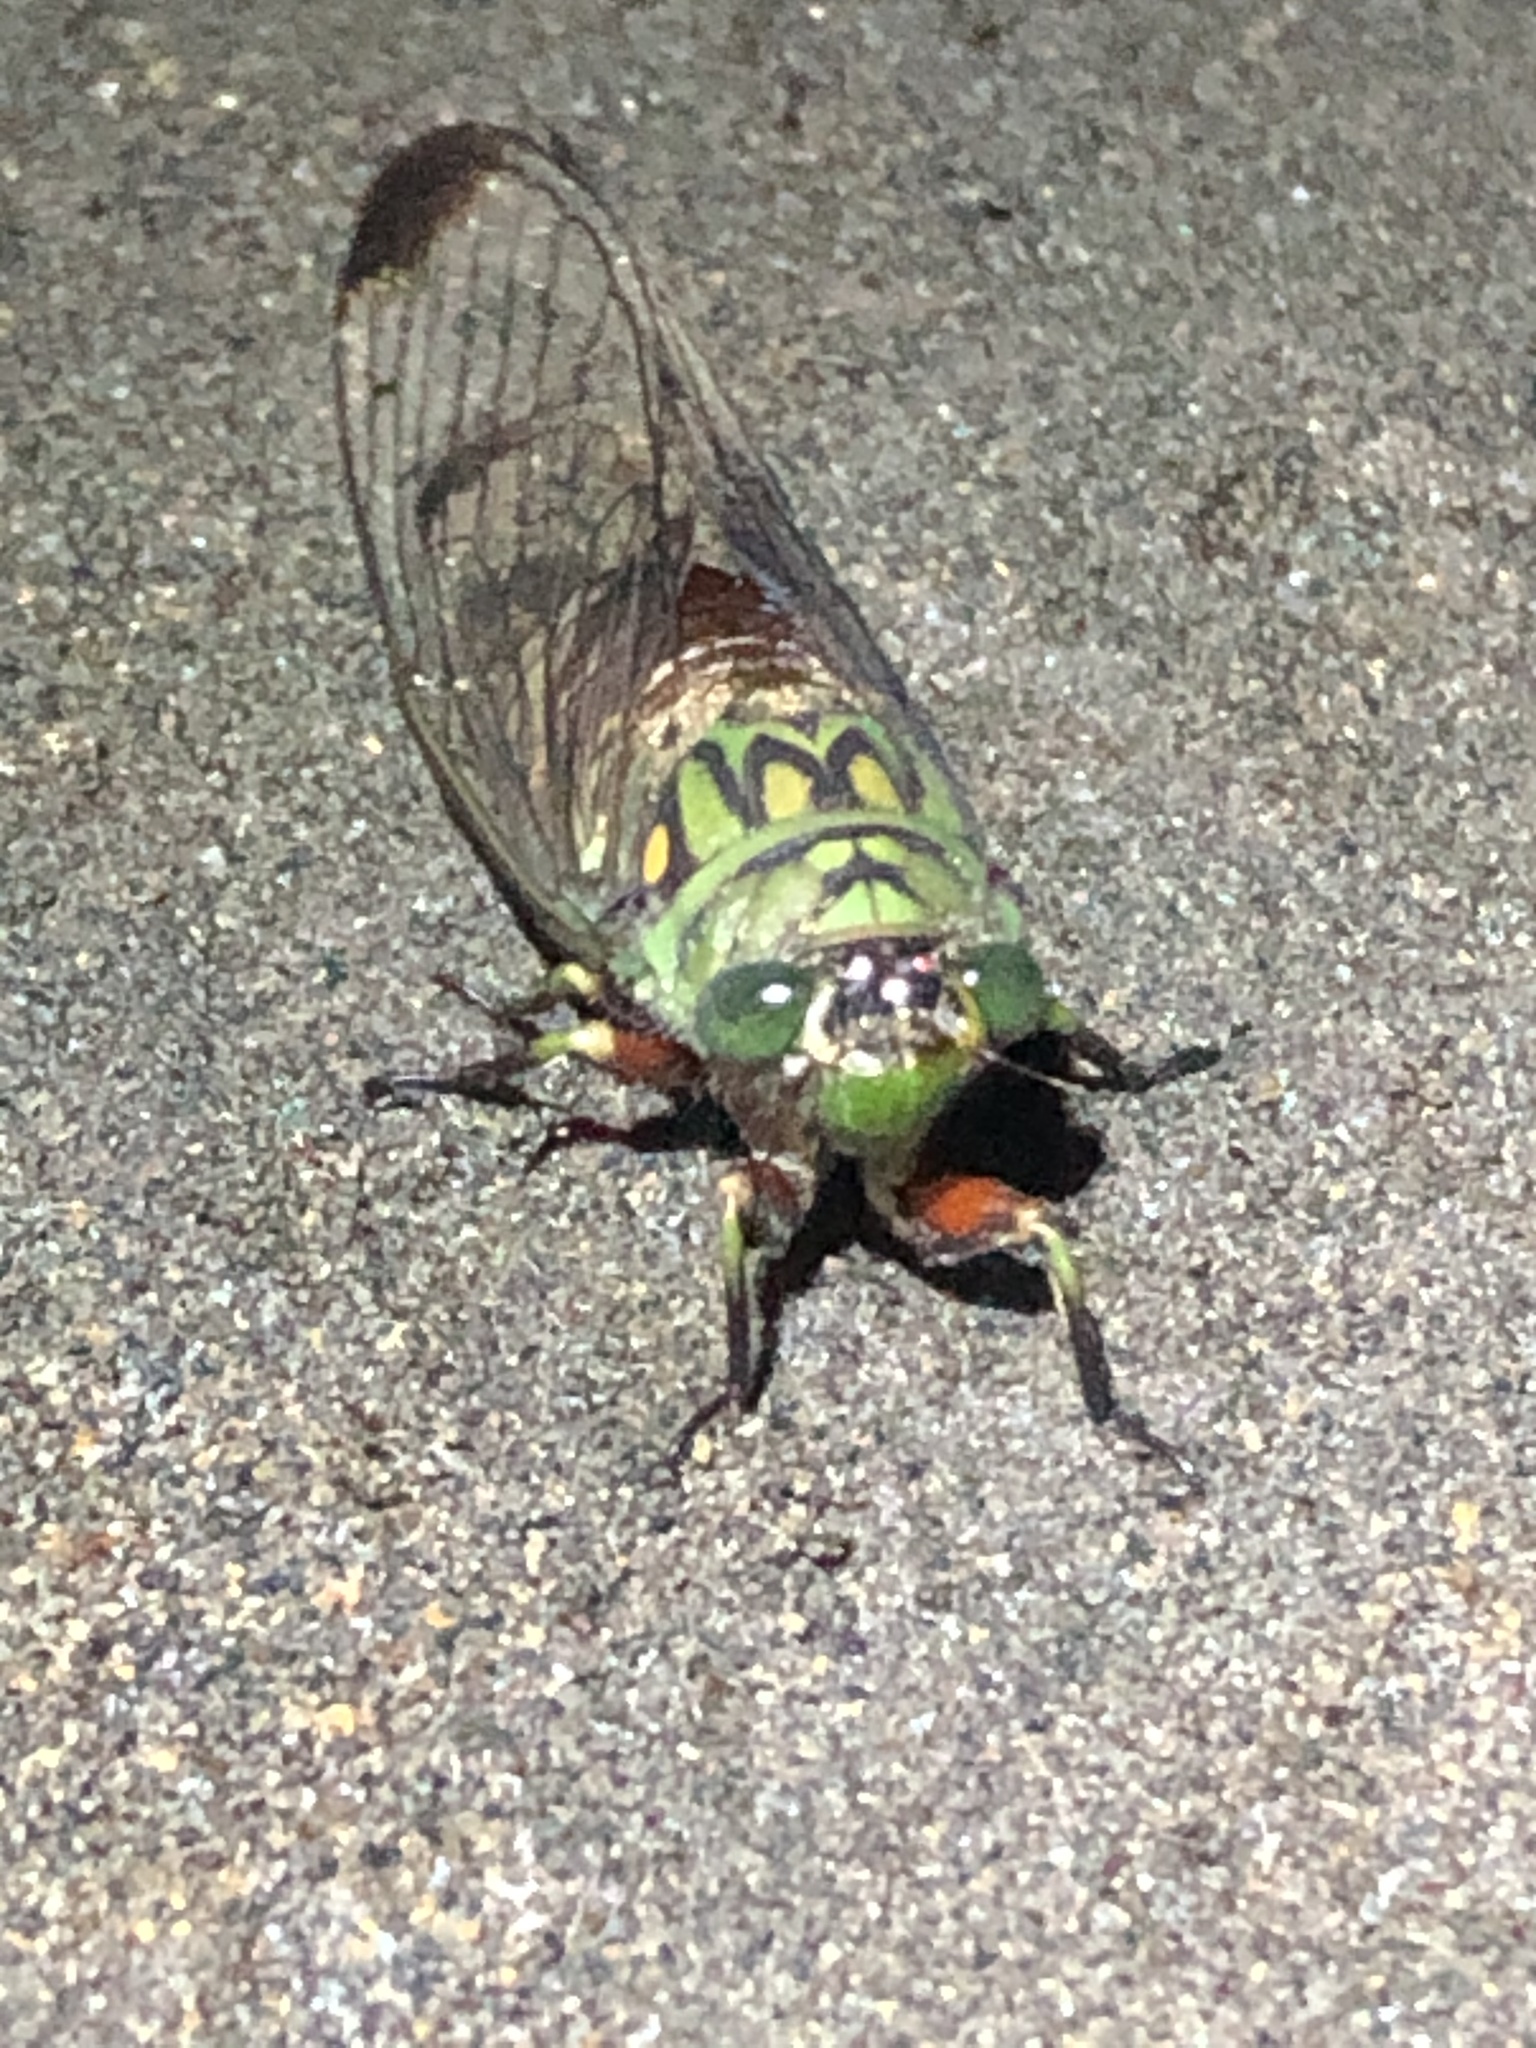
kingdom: Animalia
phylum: Arthropoda
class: Insecta
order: Hemiptera
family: Cicadidae
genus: Carineta
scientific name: Carineta argentea
